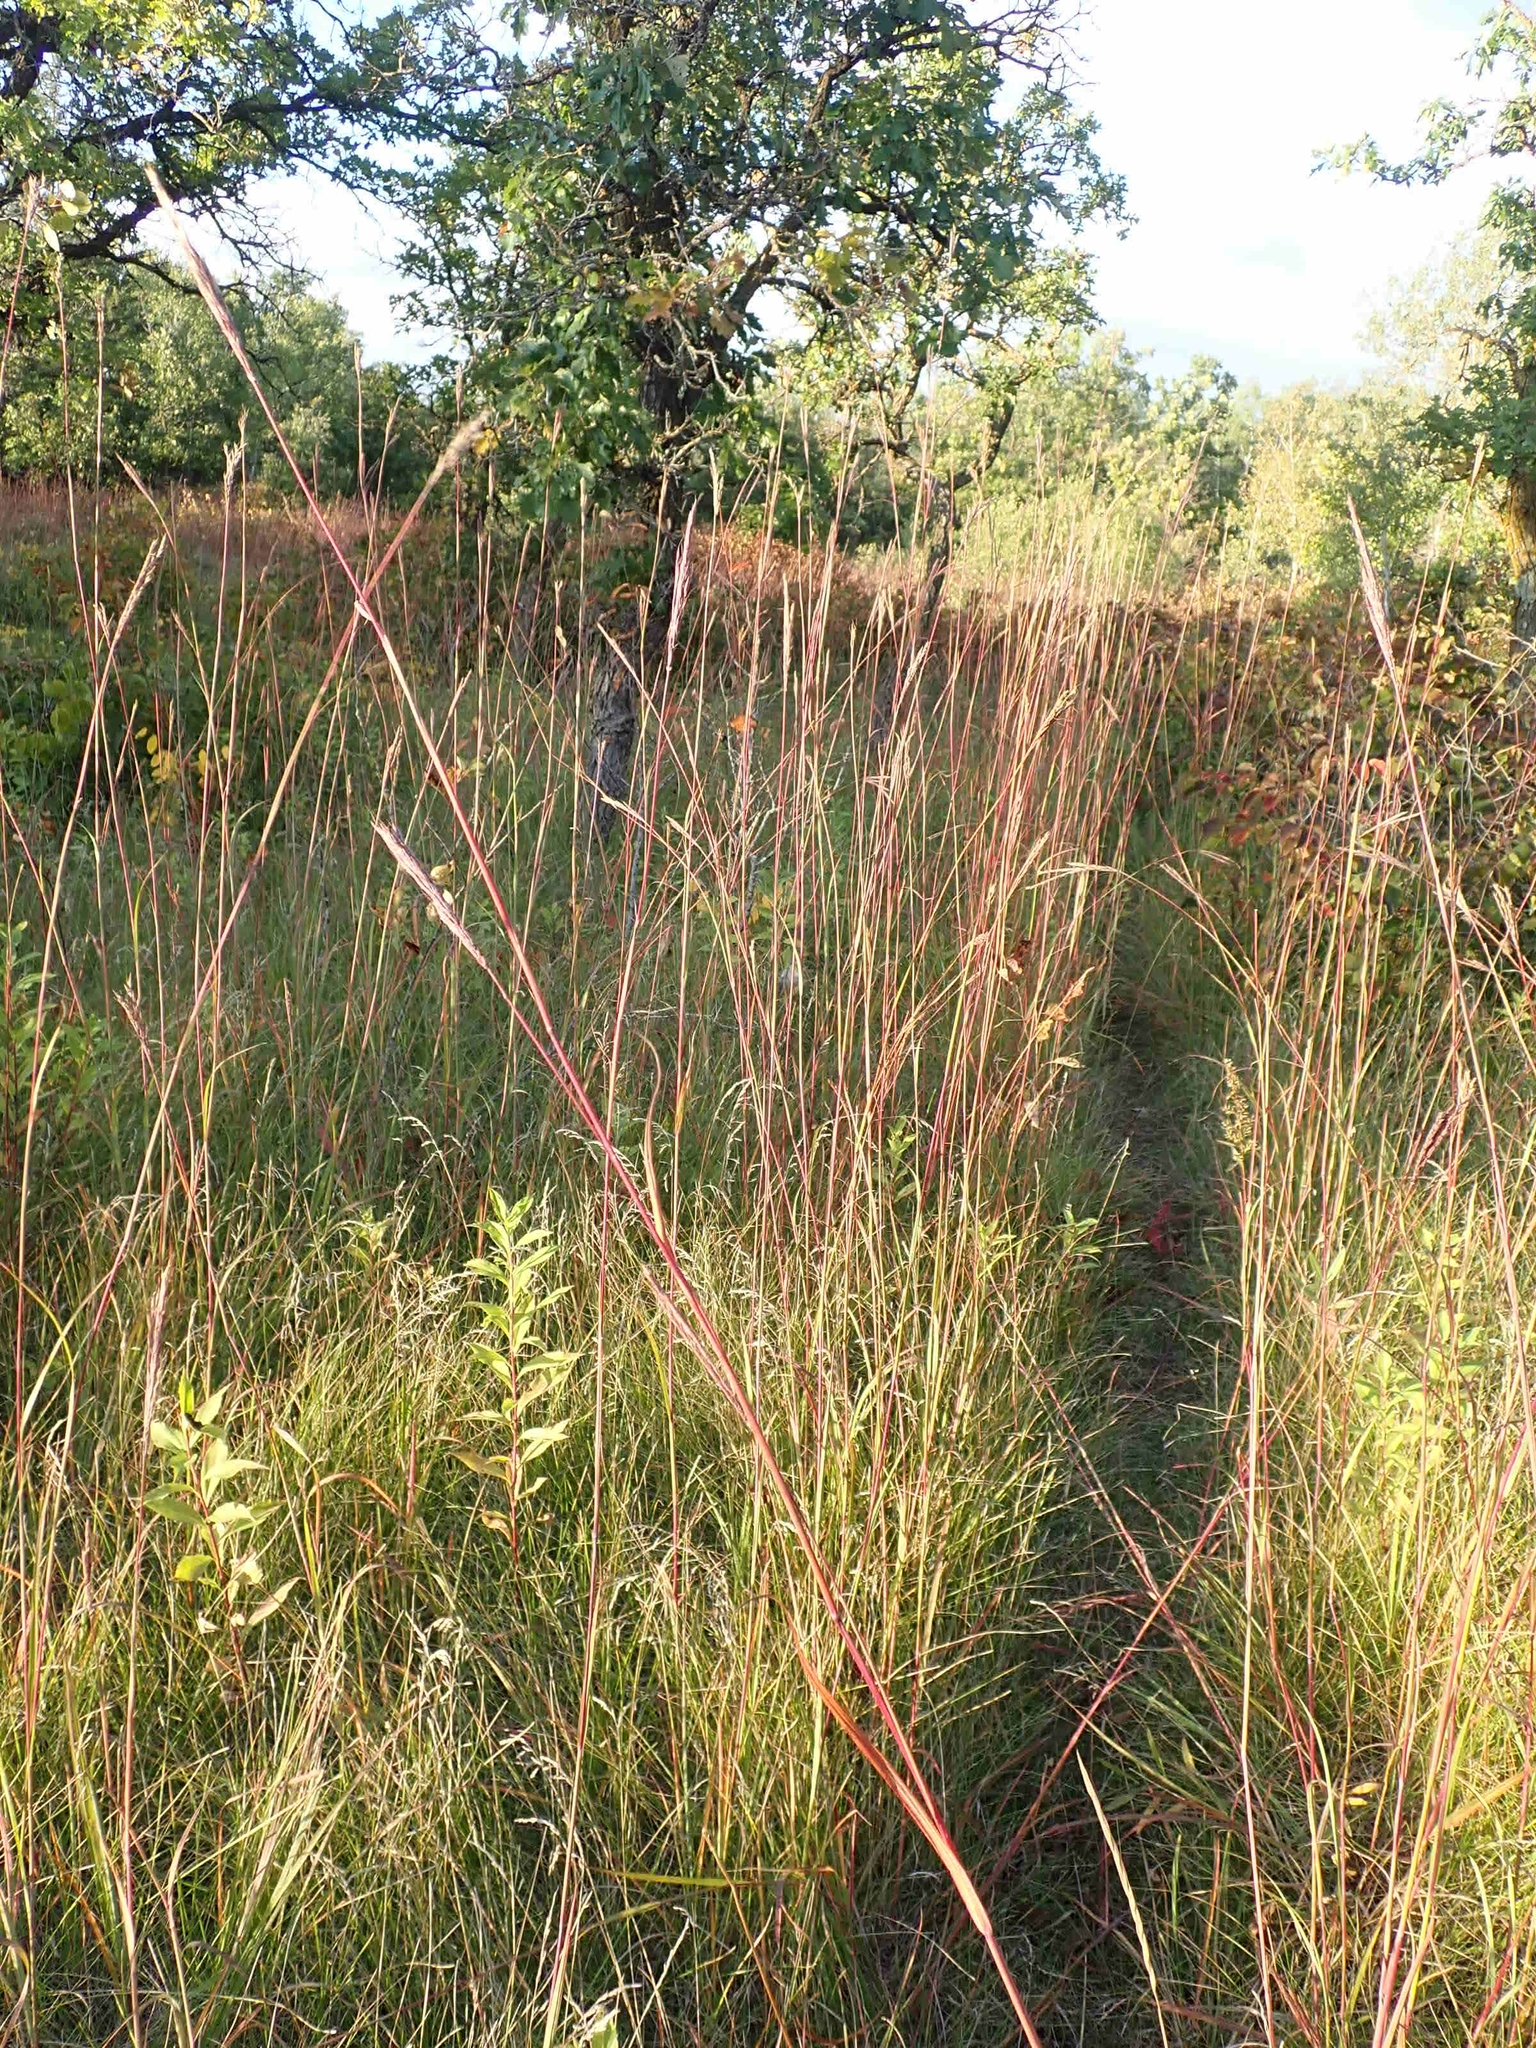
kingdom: Plantae
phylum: Tracheophyta
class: Liliopsida
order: Poales
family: Poaceae
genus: Andropogon
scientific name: Andropogon gerardi
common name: Big bluestem
